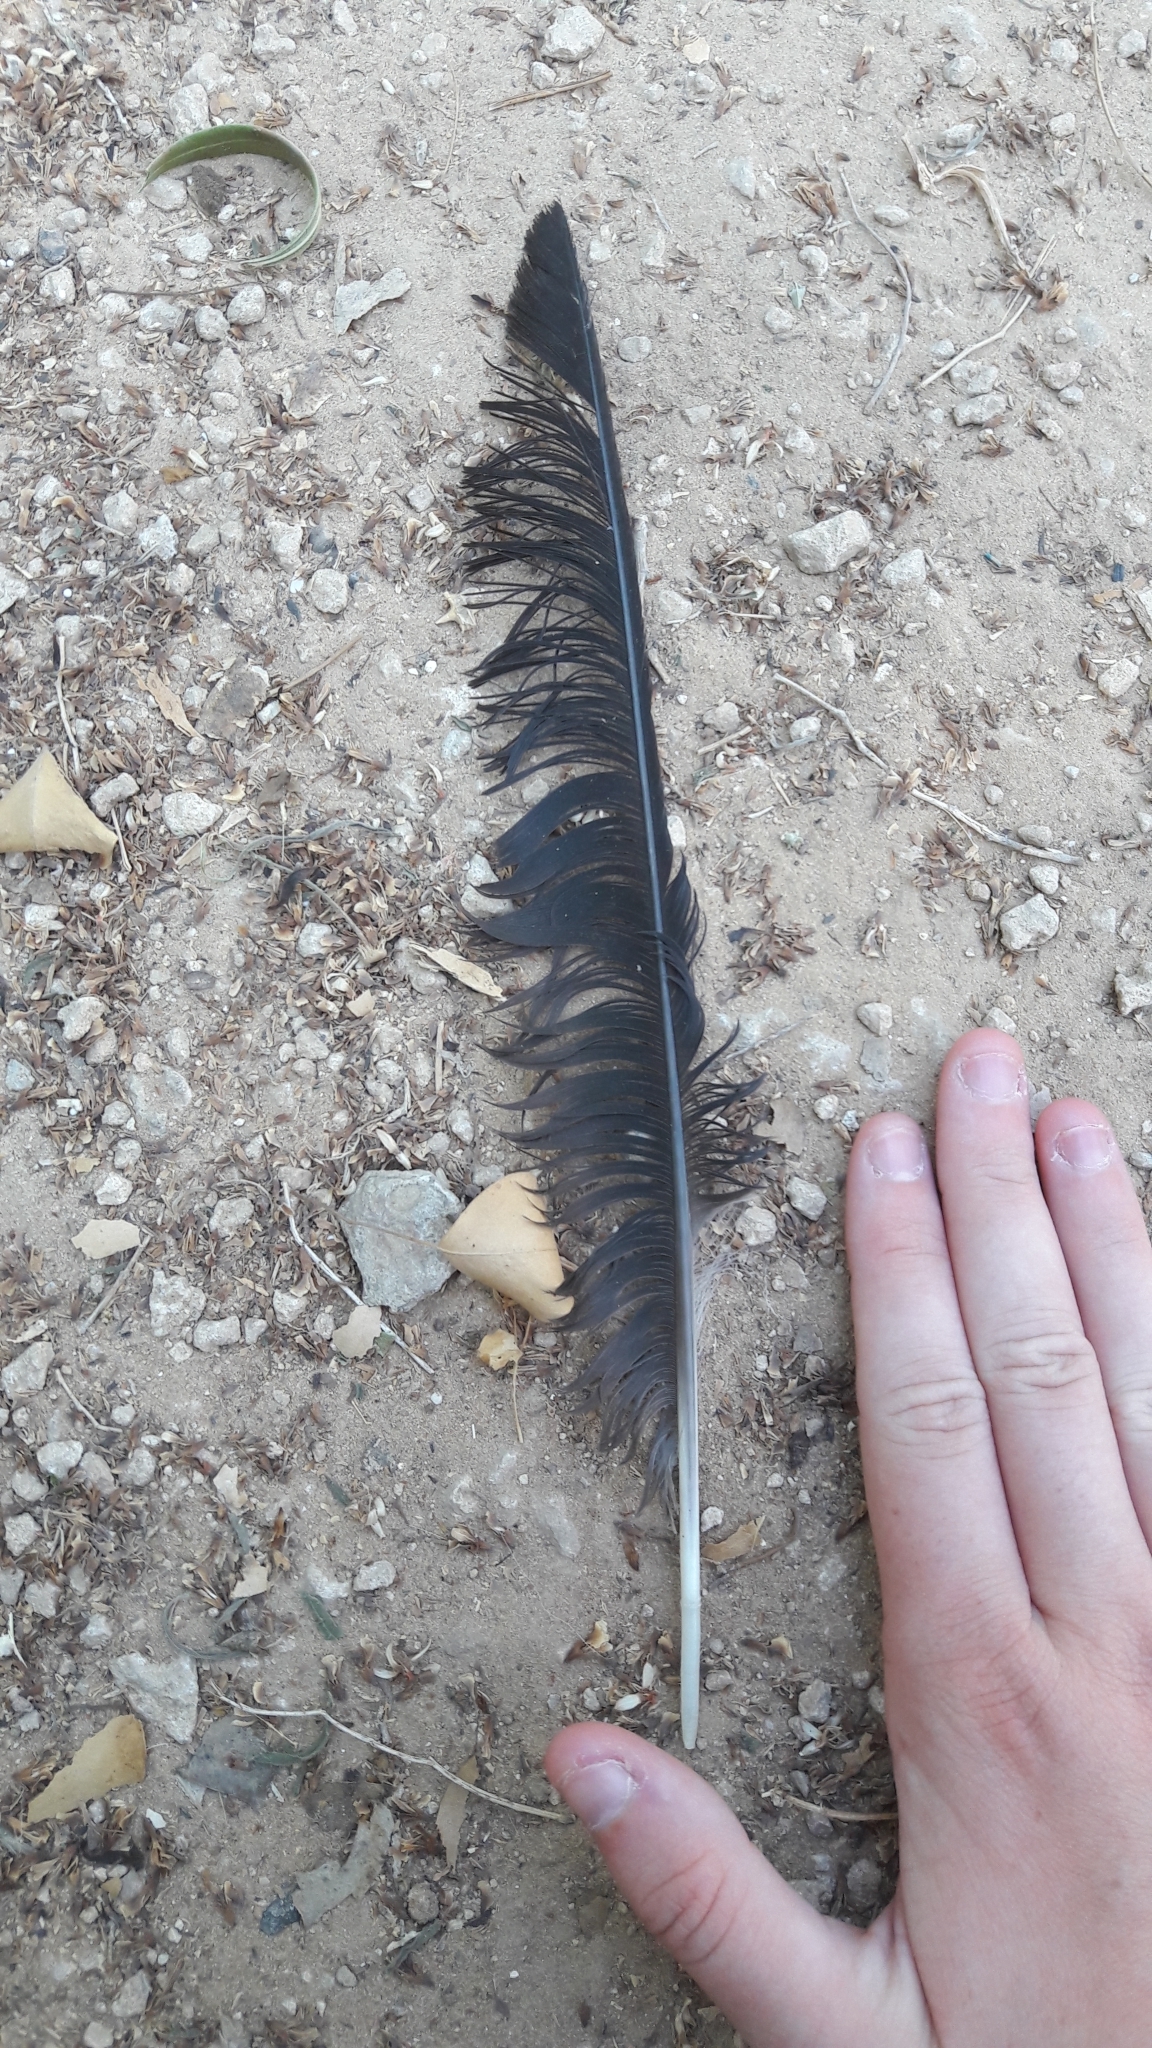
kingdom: Animalia
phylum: Chordata
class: Aves
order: Passeriformes
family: Corvidae
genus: Corvus
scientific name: Corvus cornix
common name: Hooded crow
